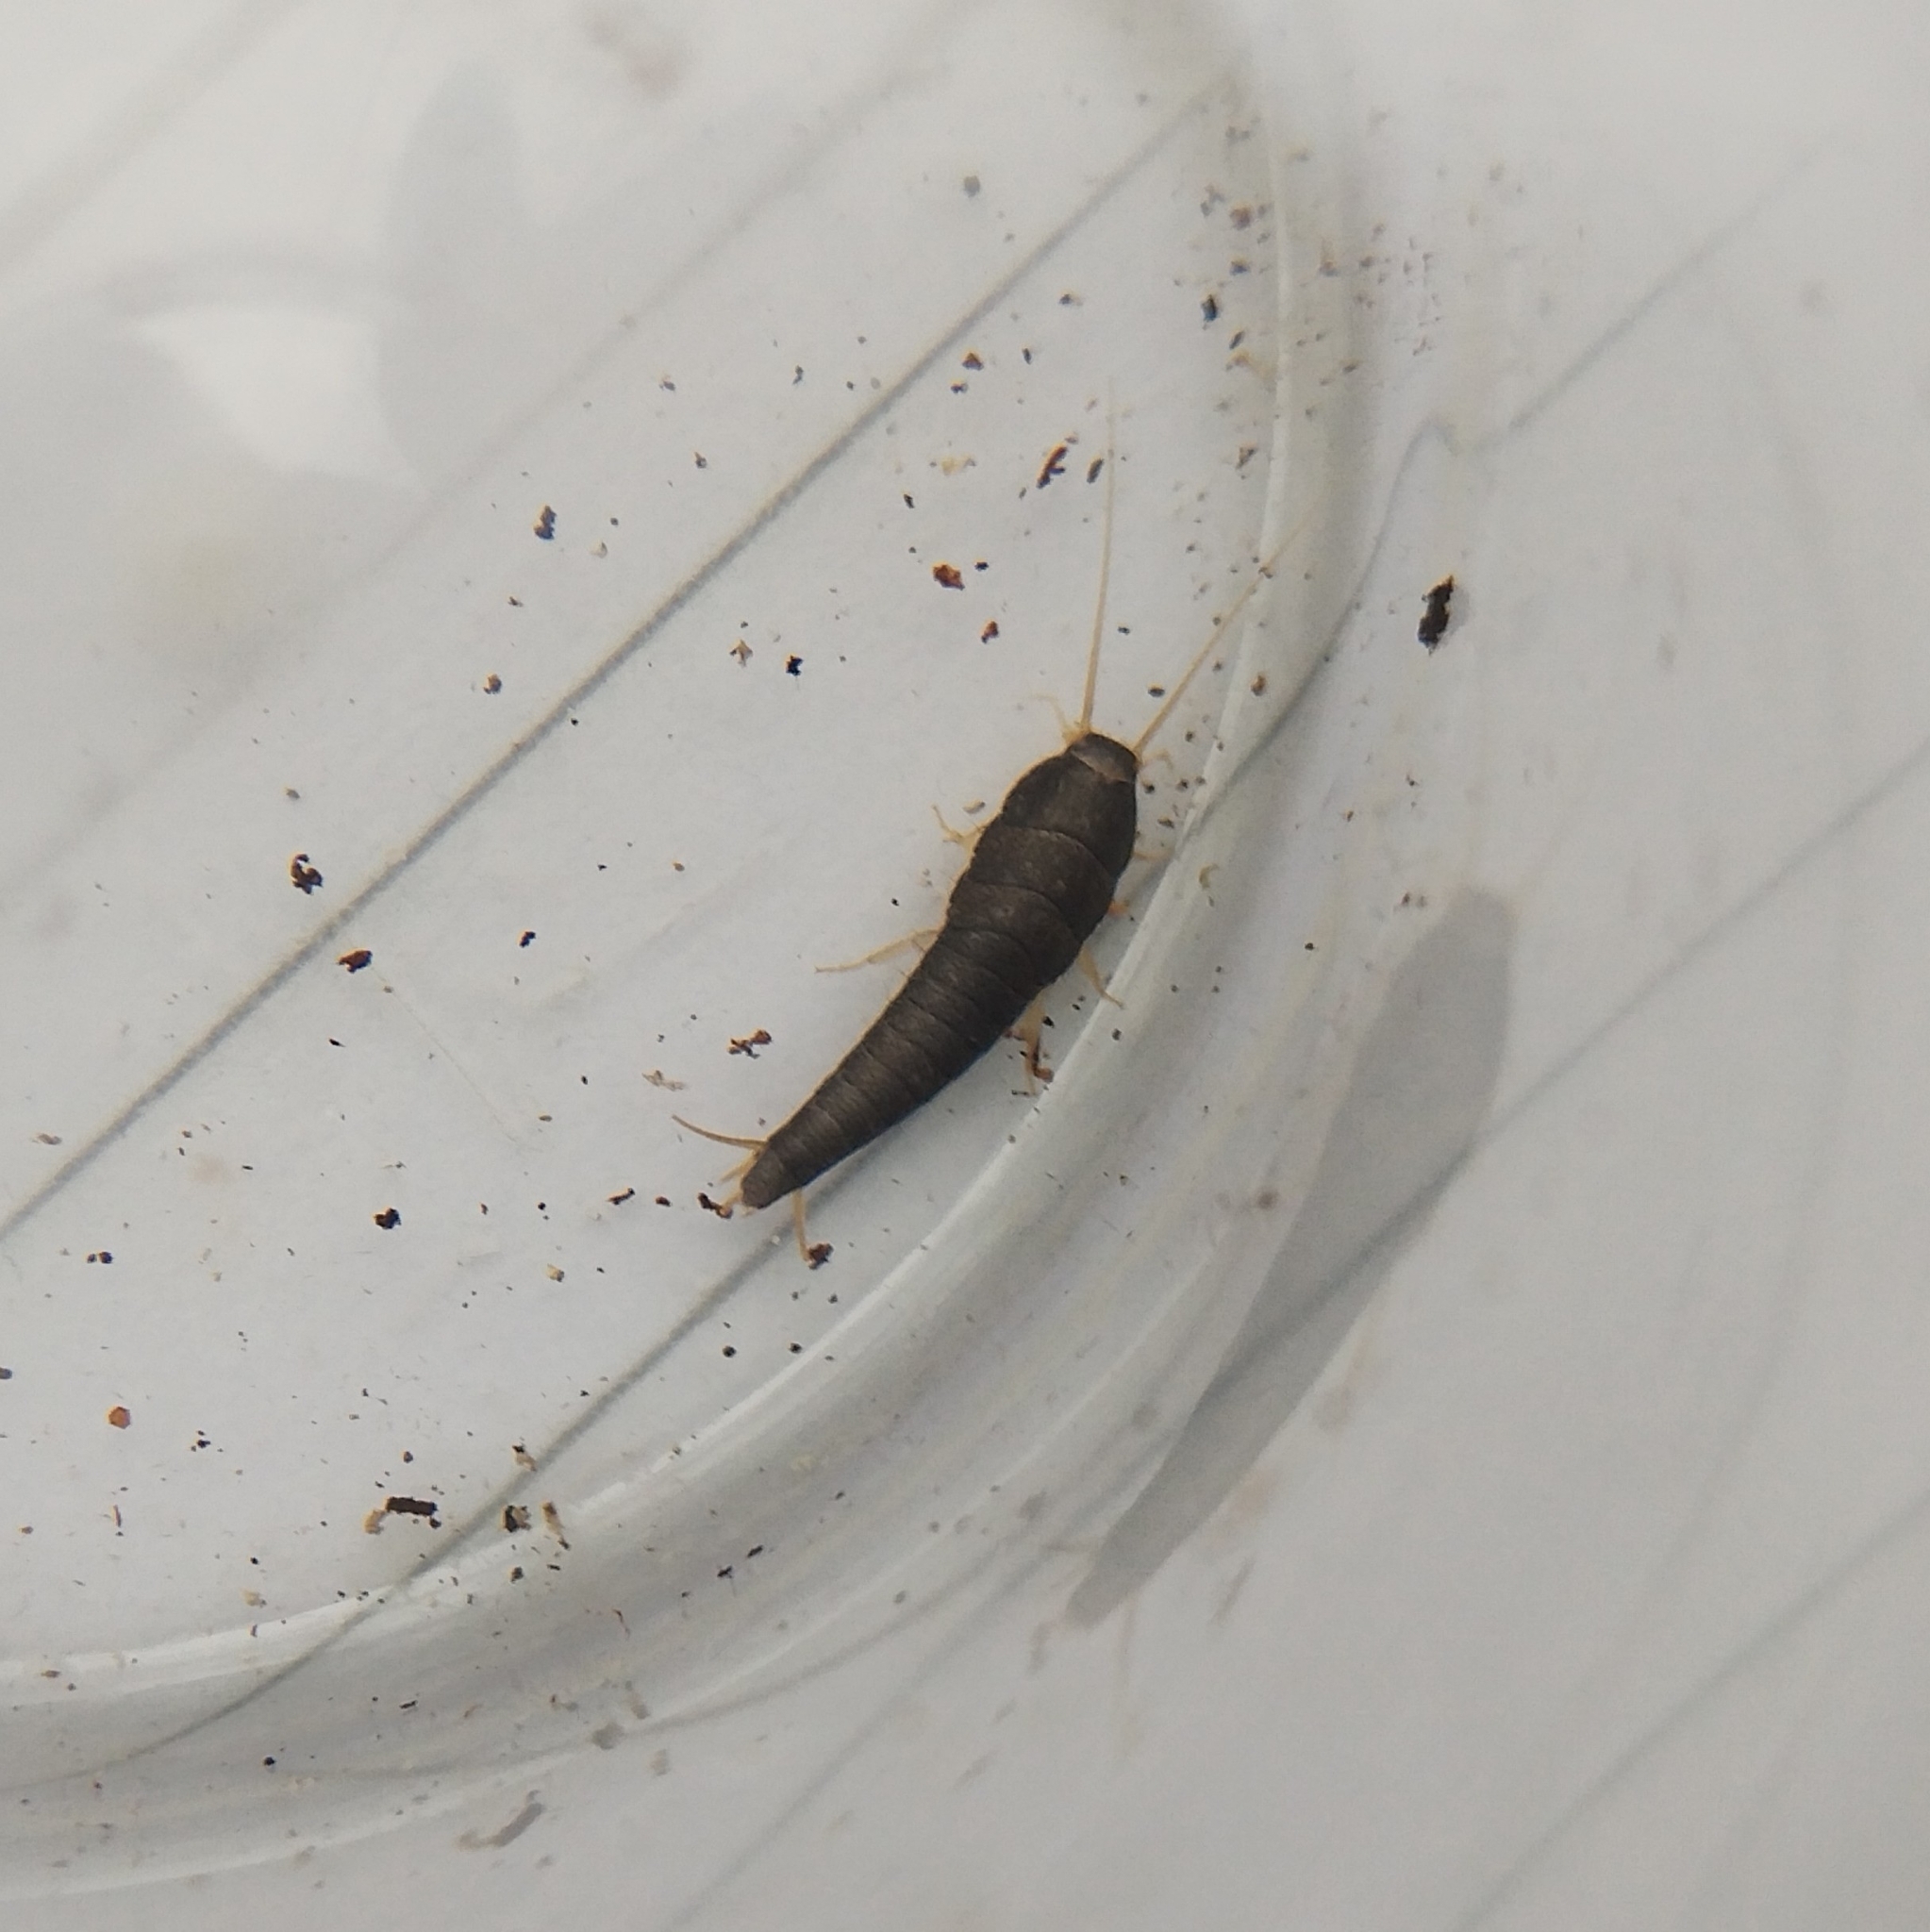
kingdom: Animalia
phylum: Arthropoda
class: Insecta
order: Zygentoma
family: Lepismatidae
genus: Lepisma
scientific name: Lepisma saccharinum
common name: Silverfish
